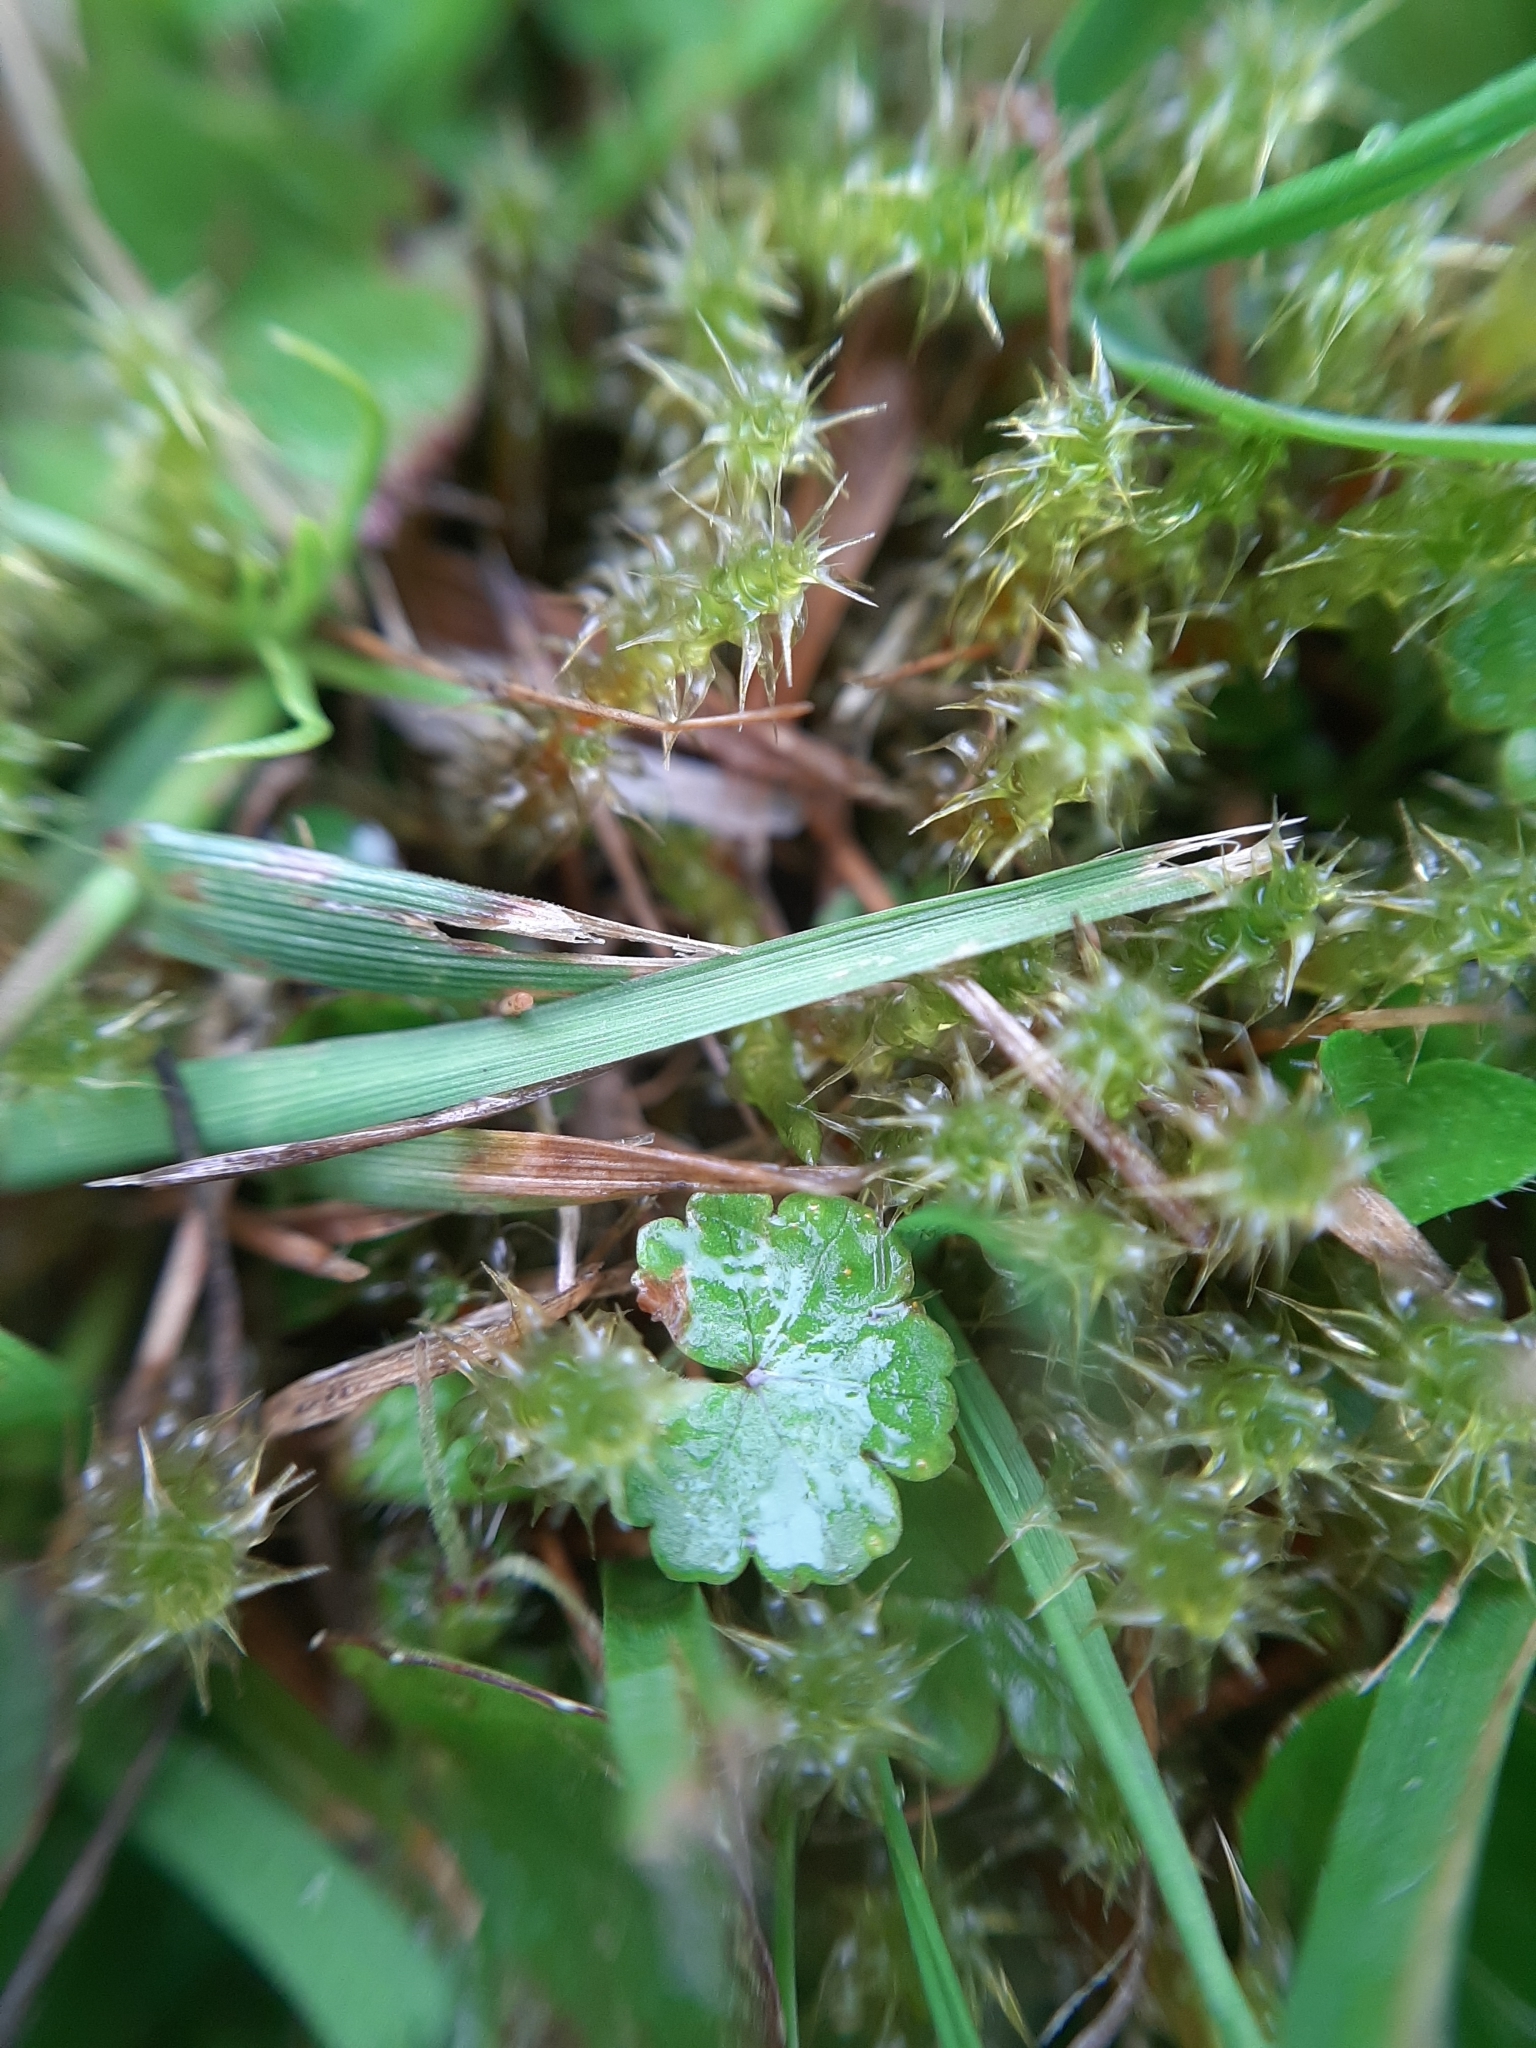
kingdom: Plantae
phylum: Tracheophyta
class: Magnoliopsida
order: Apiales
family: Araliaceae
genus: Hydrocotyle
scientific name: Hydrocotyle novae-zeelandiae
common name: New zealand pennywort
